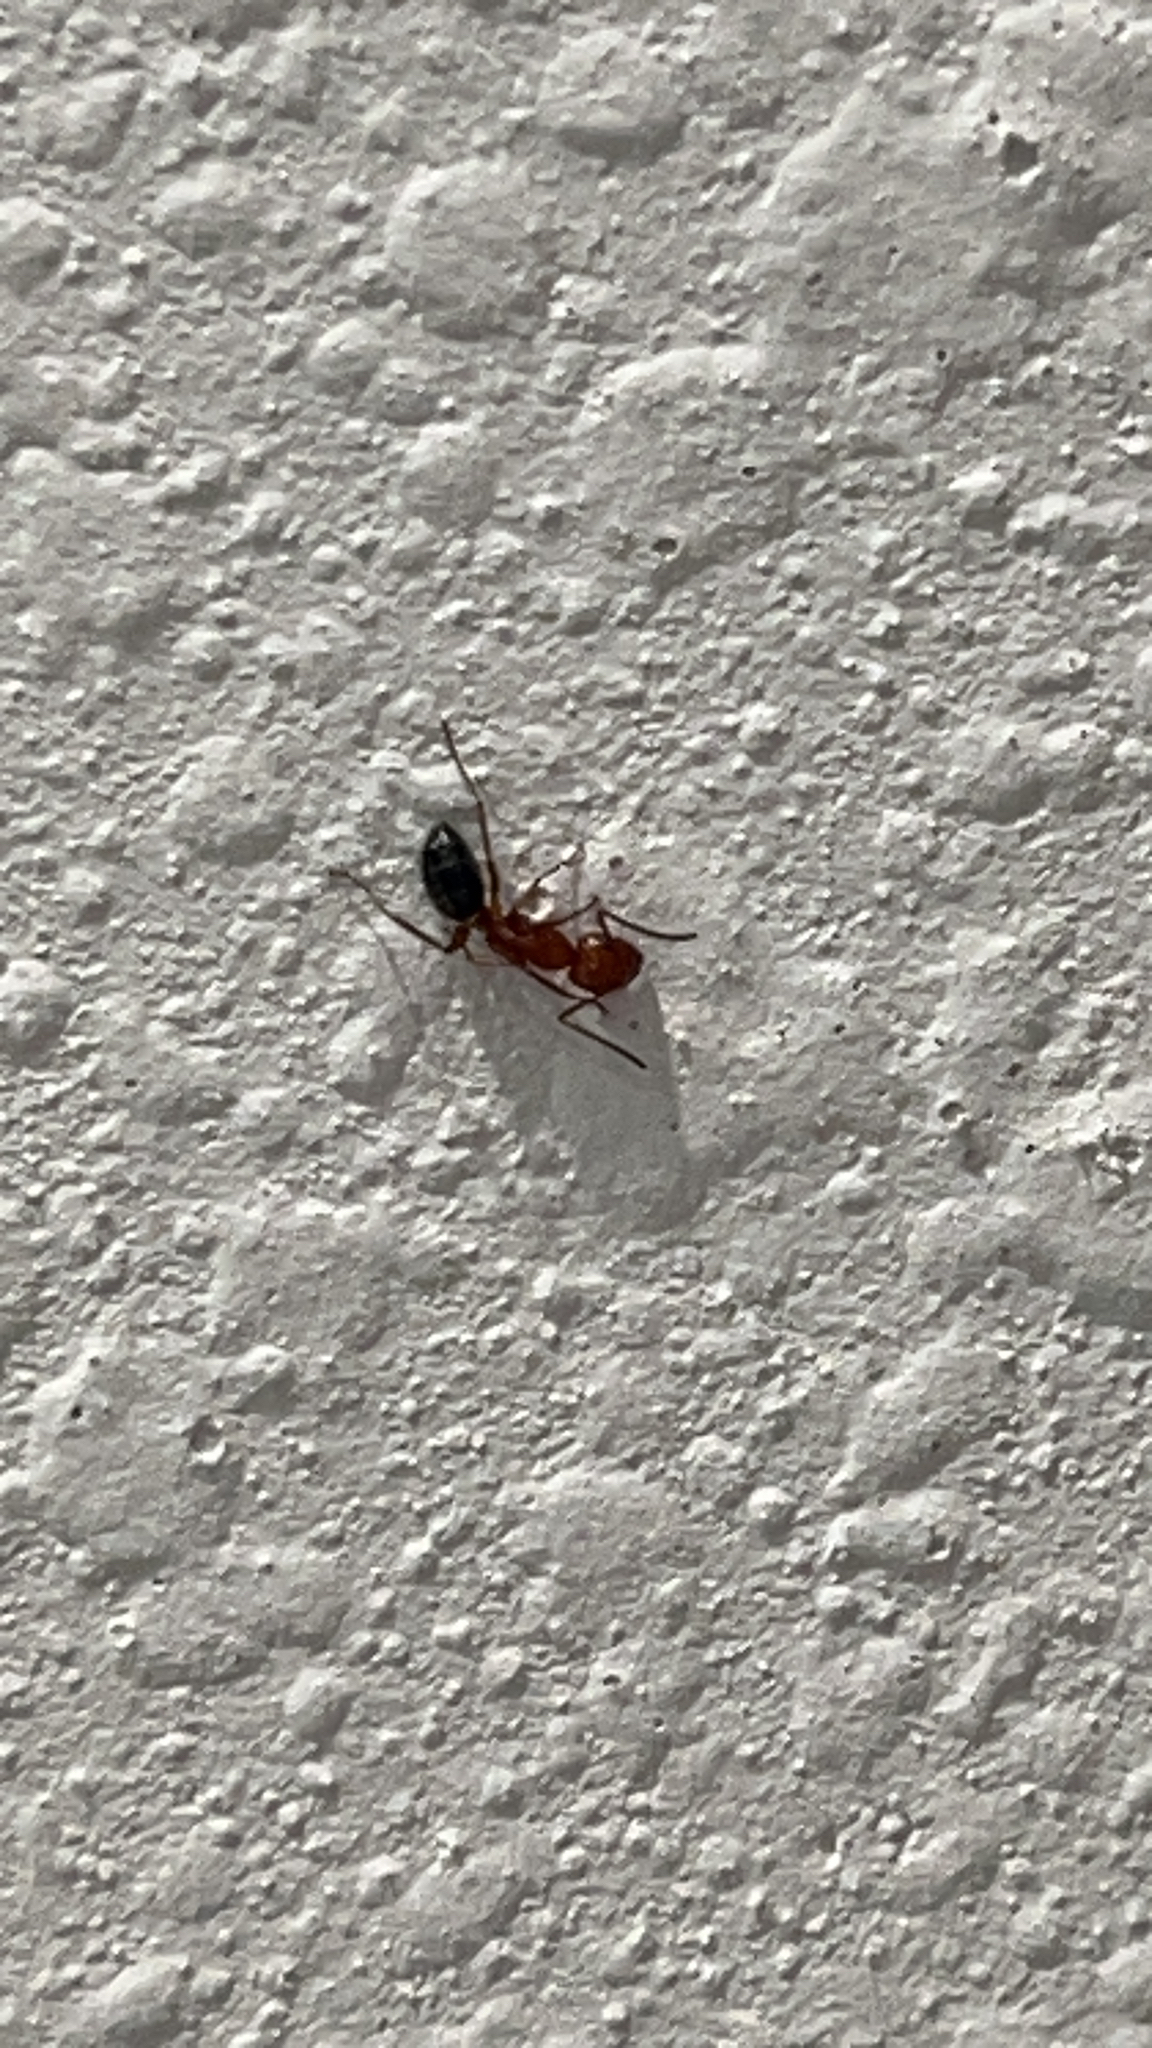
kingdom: Animalia
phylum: Arthropoda
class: Insecta
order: Hymenoptera
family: Formicidae
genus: Camponotus
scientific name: Camponotus decipiens
